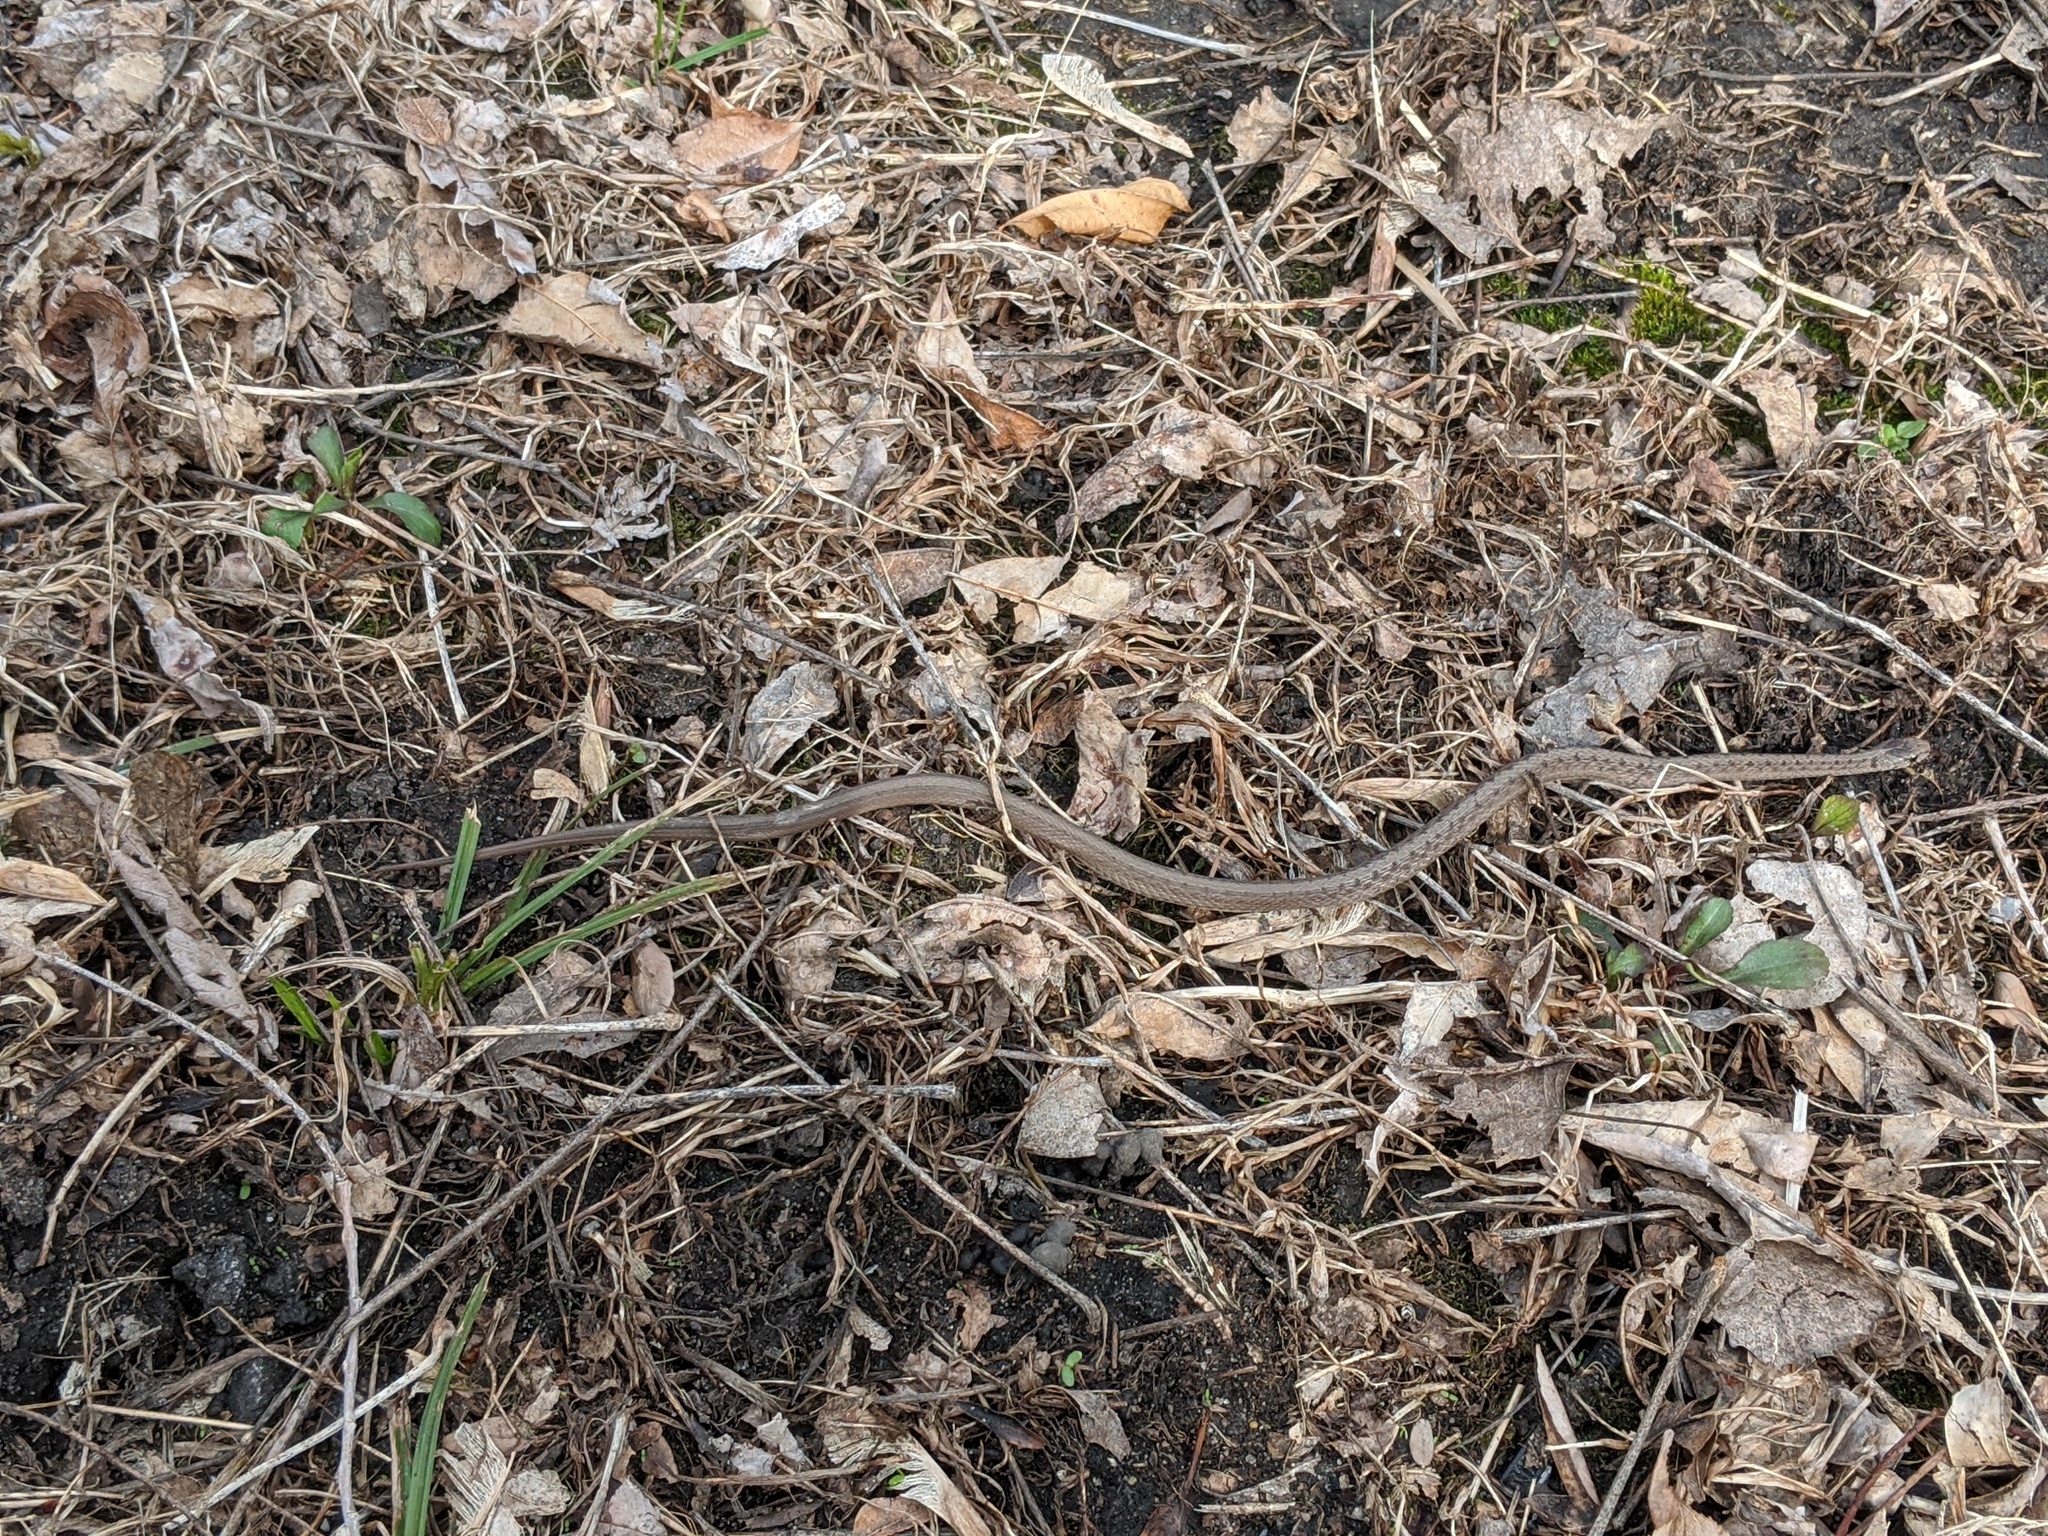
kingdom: Animalia
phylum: Chordata
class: Squamata
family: Colubridae
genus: Storeria
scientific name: Storeria dekayi
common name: (dekay’s) brown snake
